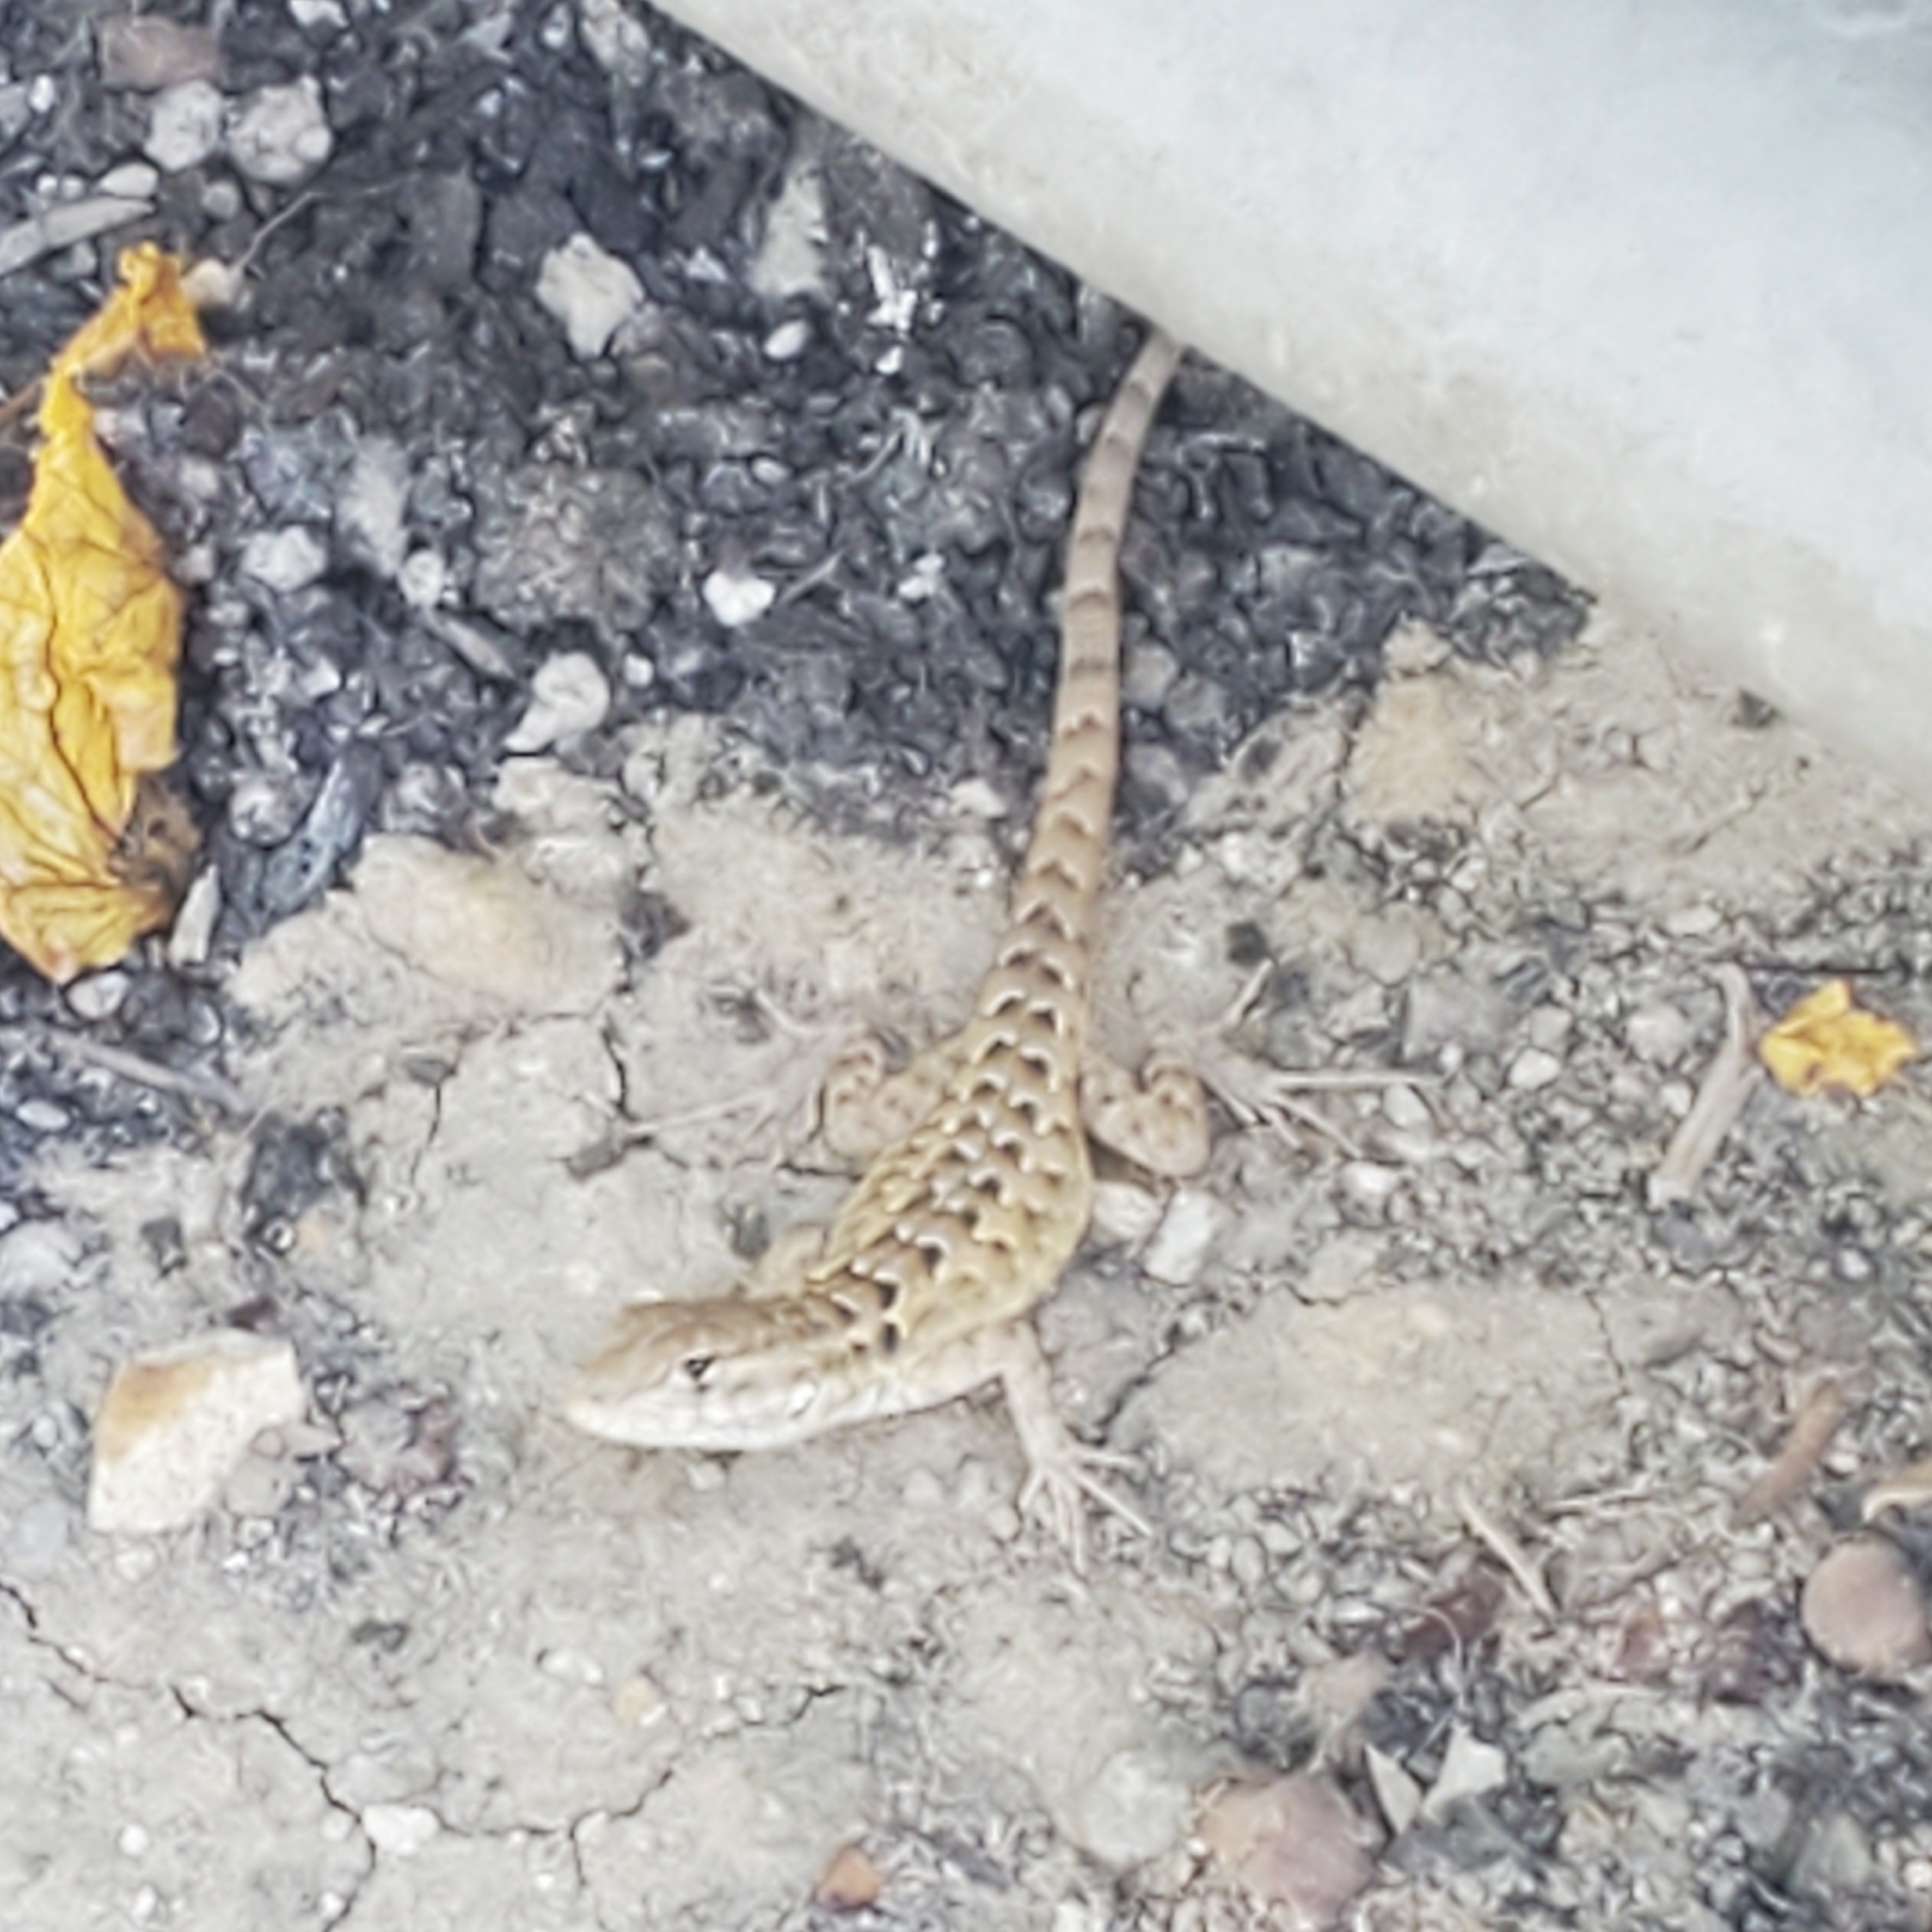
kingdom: Animalia
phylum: Chordata
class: Squamata
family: Phrynosomatidae
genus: Uta
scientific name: Uta stansburiana
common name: Side-blotched lizard
